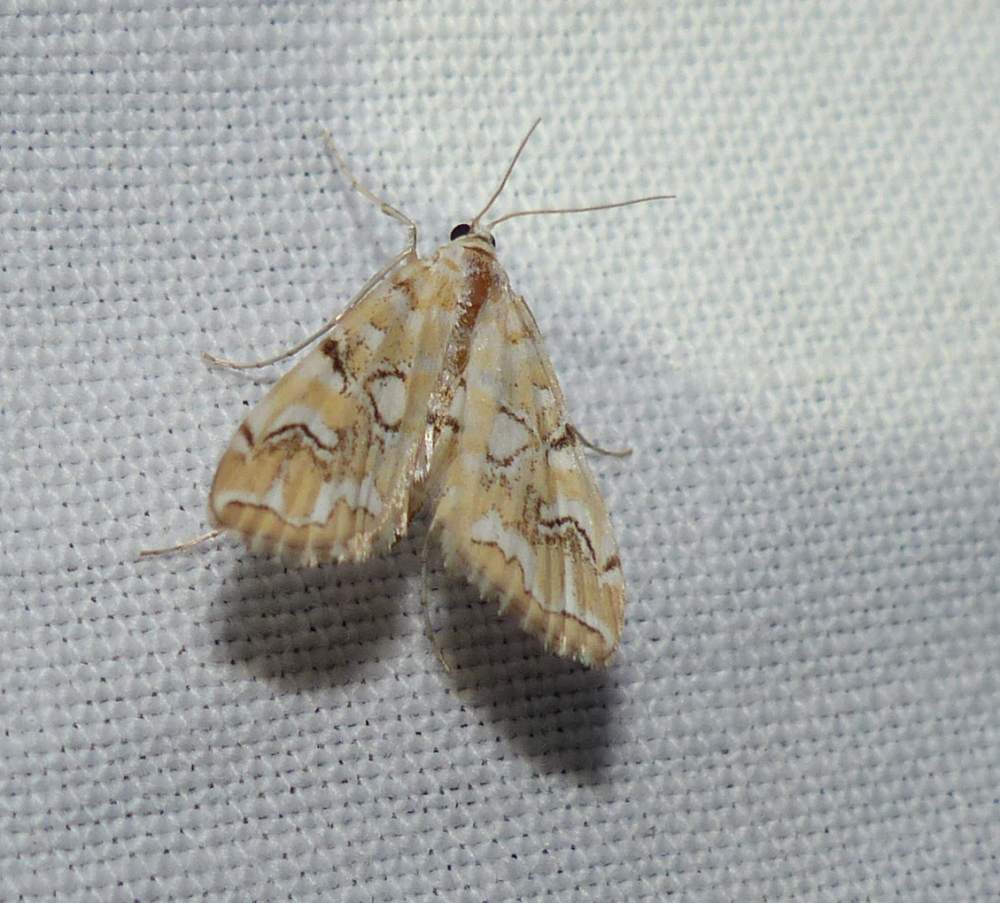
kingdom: Animalia
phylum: Arthropoda
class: Insecta
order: Lepidoptera
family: Crambidae
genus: Elophila
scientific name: Elophila icciusalis
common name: Pondside pyralid moth
